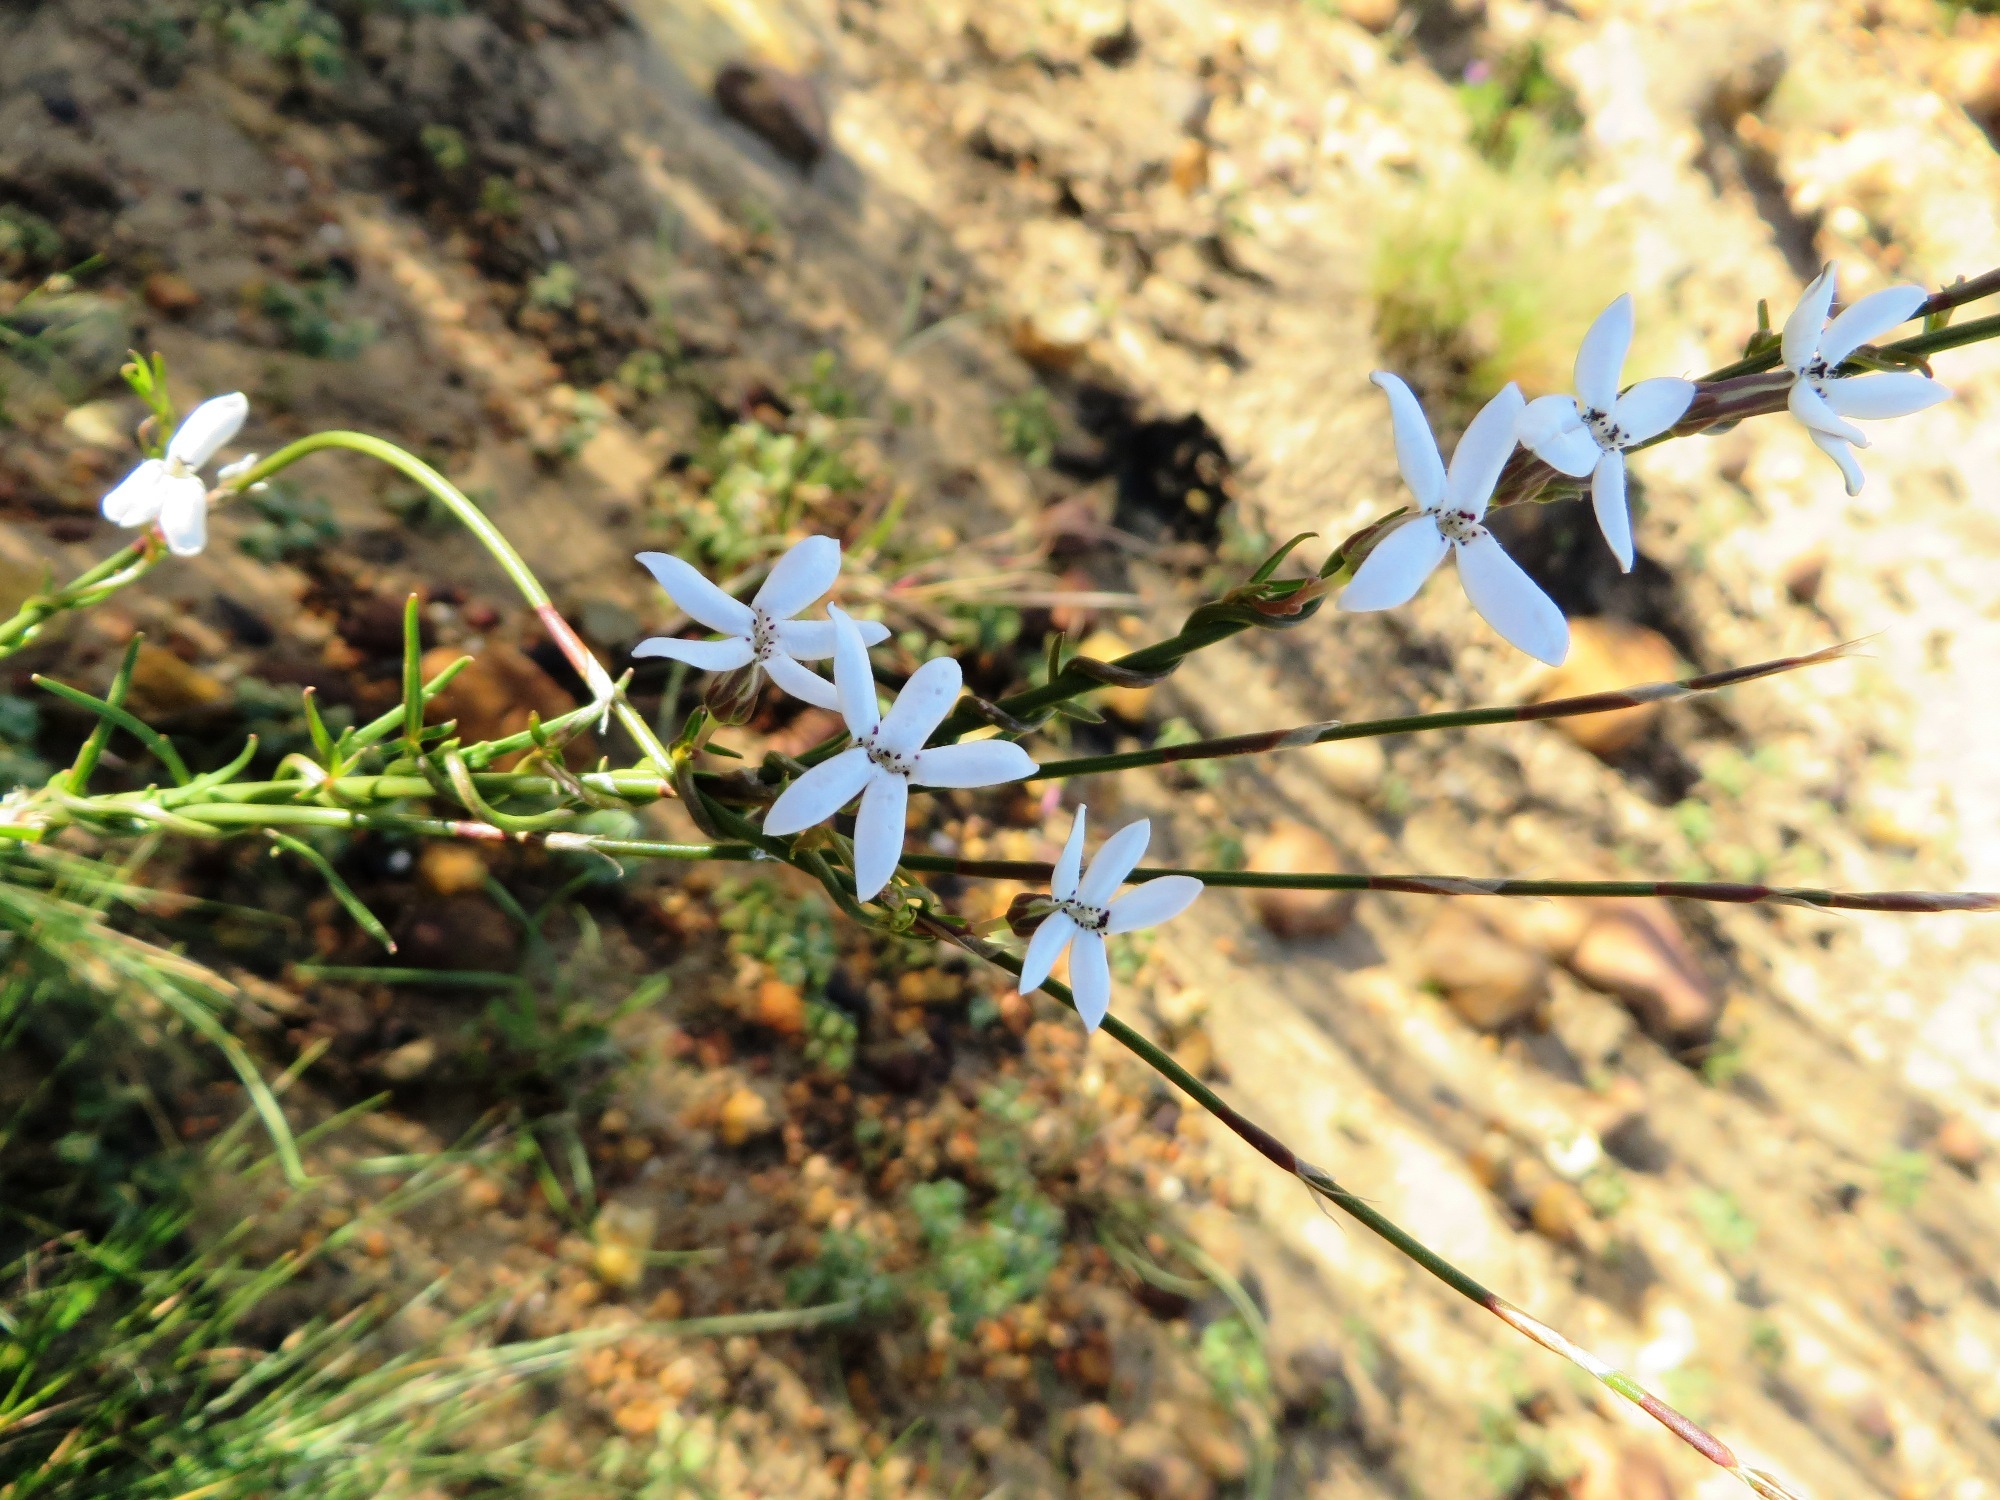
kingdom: Plantae
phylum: Tracheophyta
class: Magnoliopsida
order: Asterales
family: Campanulaceae
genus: Cyphia
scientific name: Cyphia volubilis
